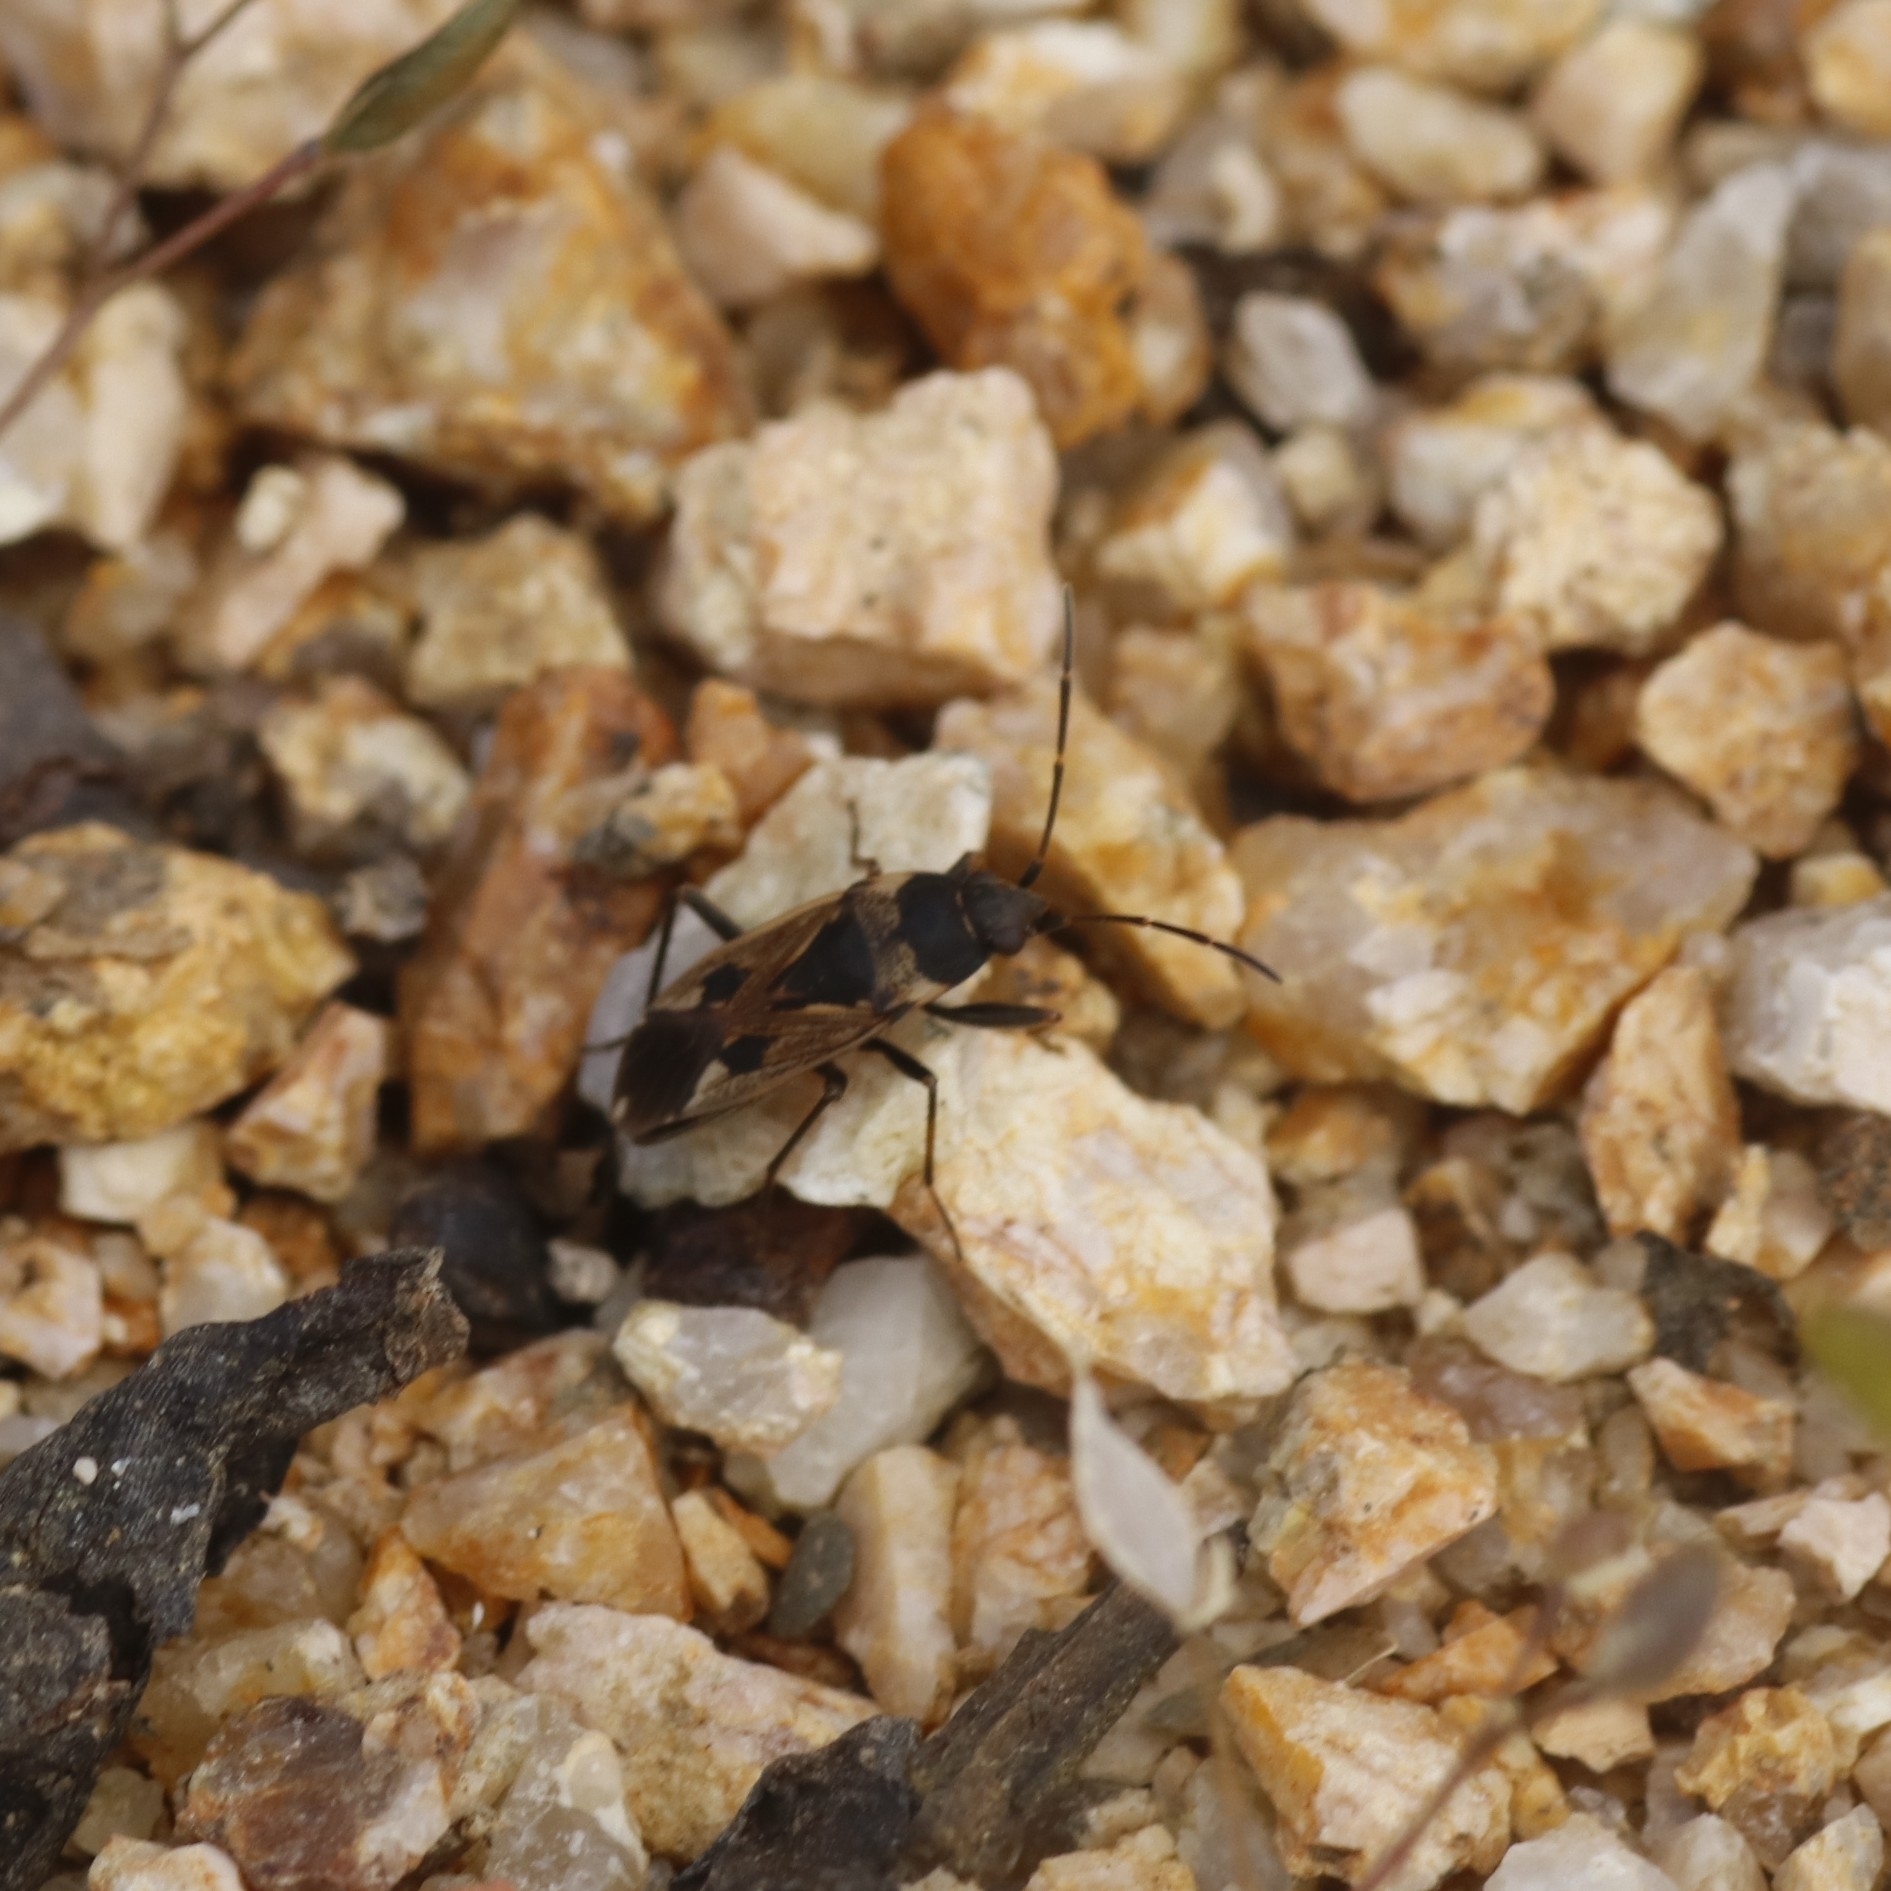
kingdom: Animalia
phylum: Arthropoda
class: Insecta
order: Hemiptera
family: Rhyparochromidae
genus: Rhyparochromus
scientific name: Rhyparochromus vulgaris
